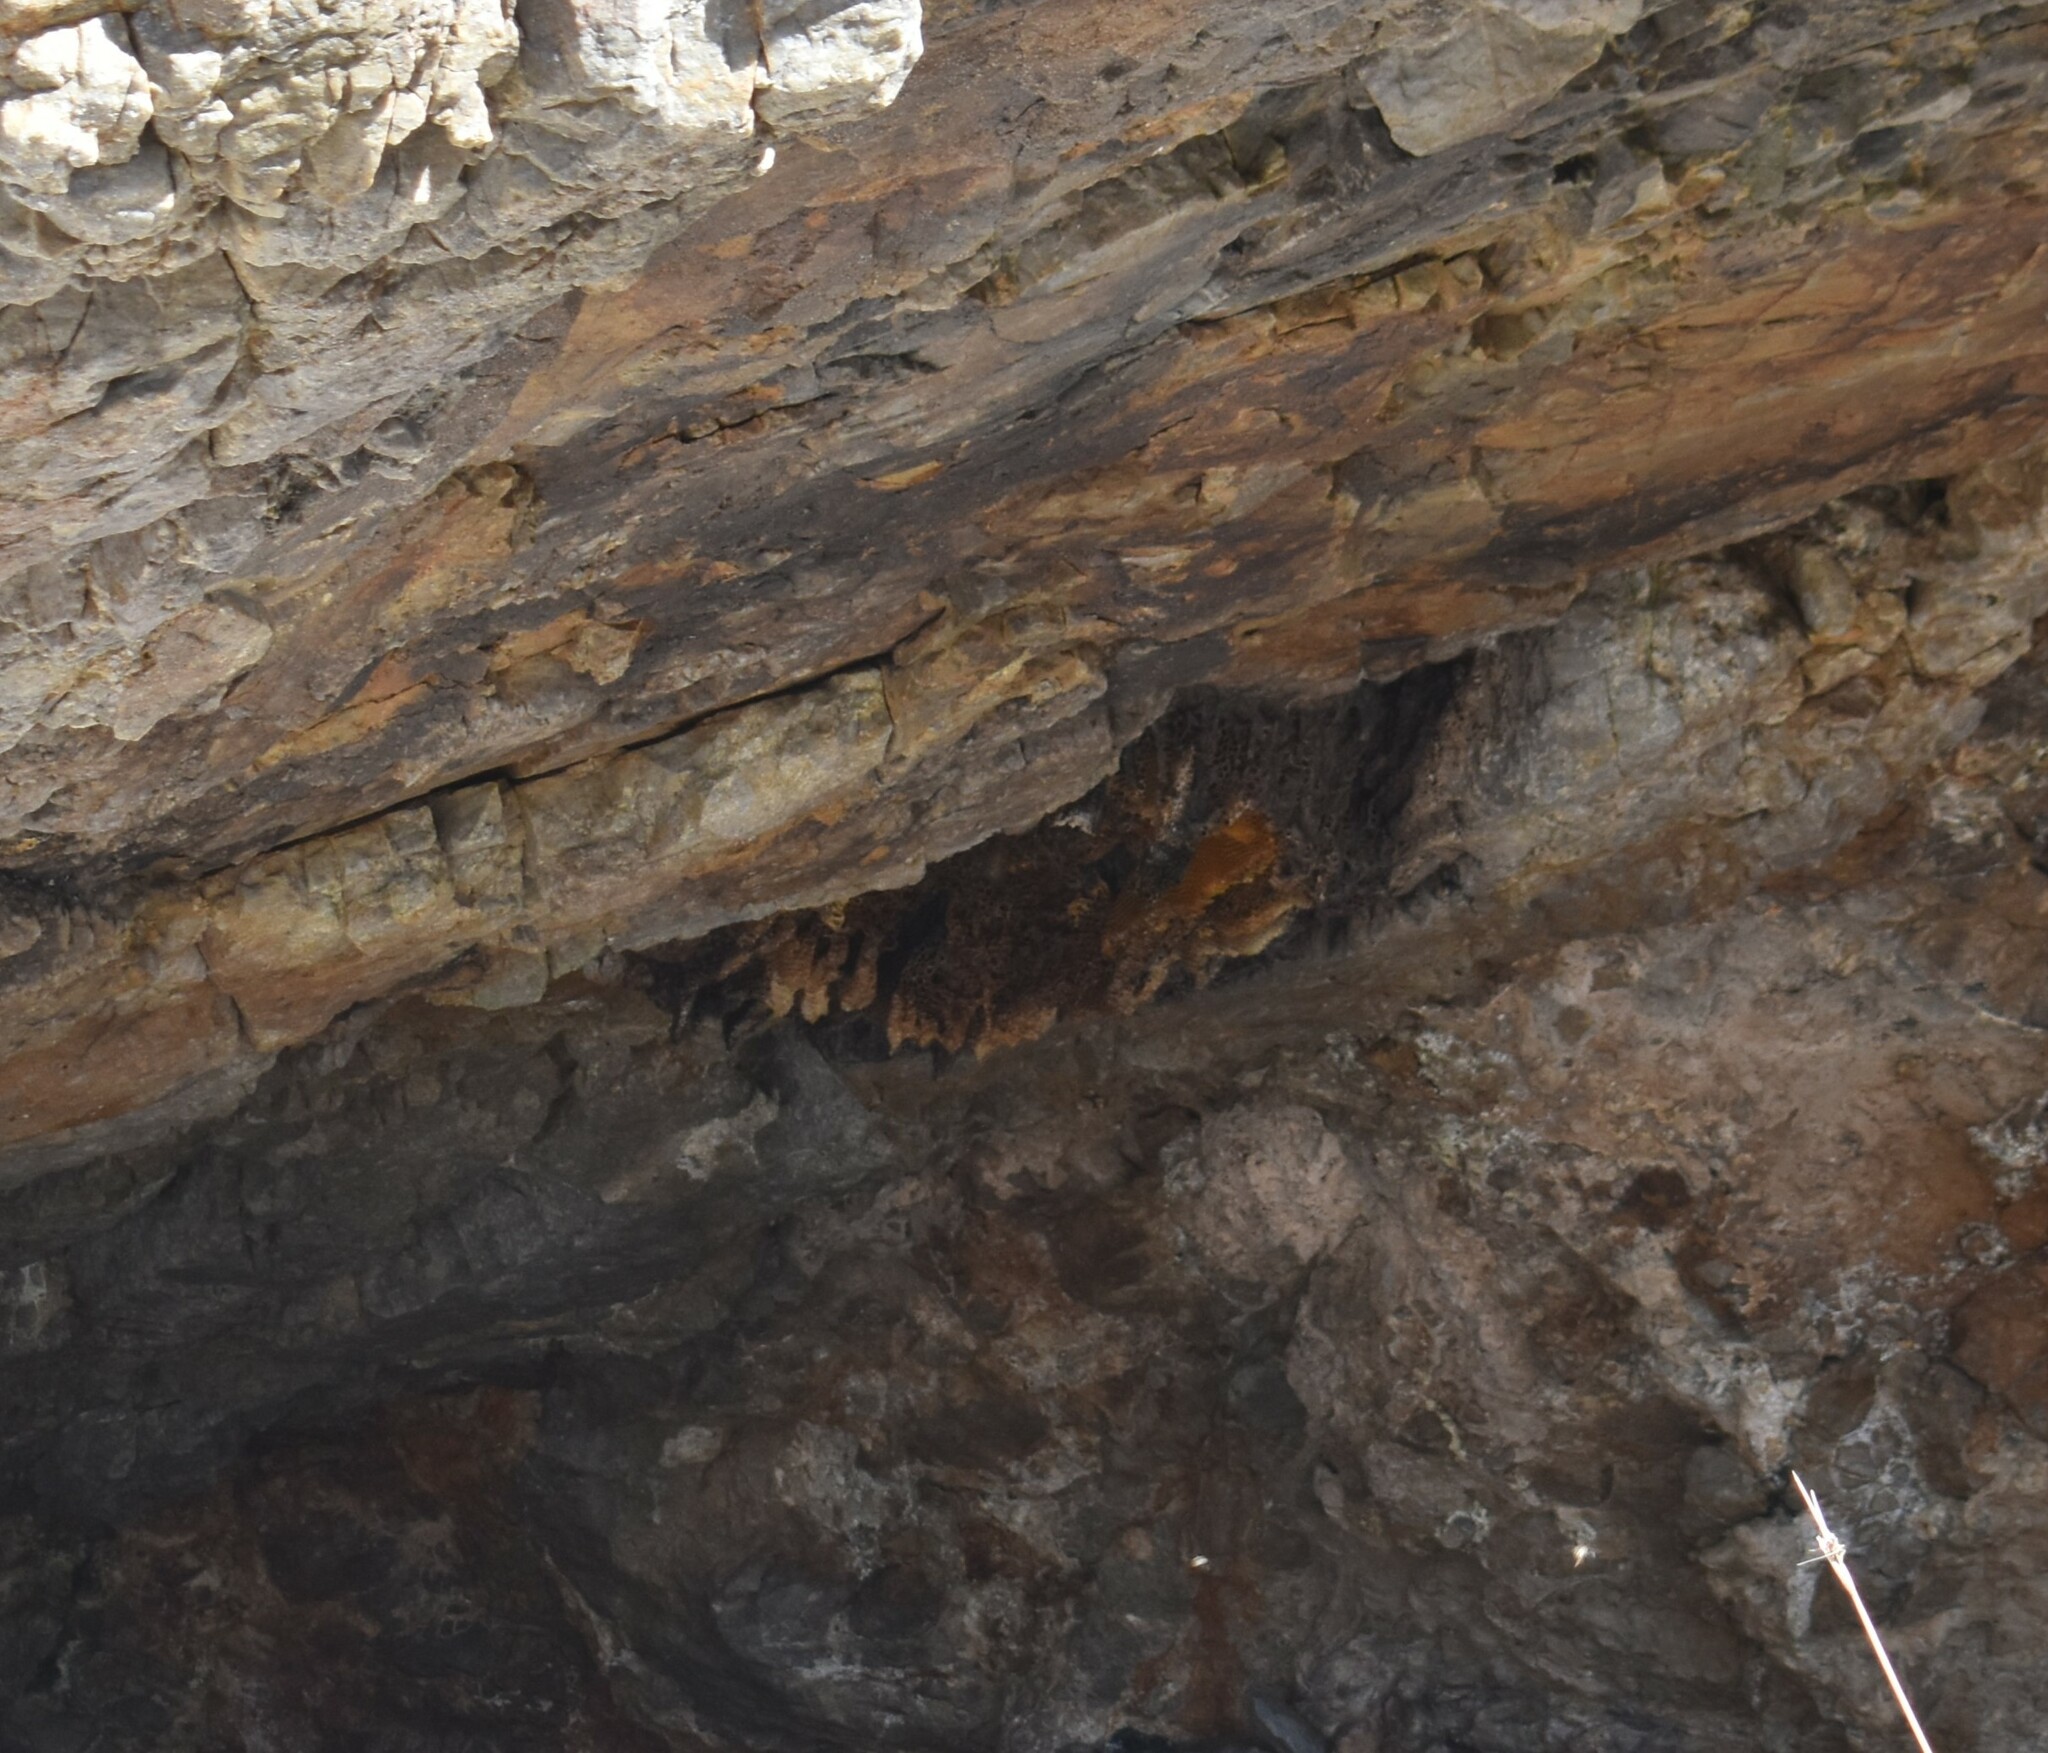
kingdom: Animalia
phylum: Arthropoda
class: Insecta
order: Hymenoptera
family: Apidae
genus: Apis
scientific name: Apis mellifera
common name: Honey bee
